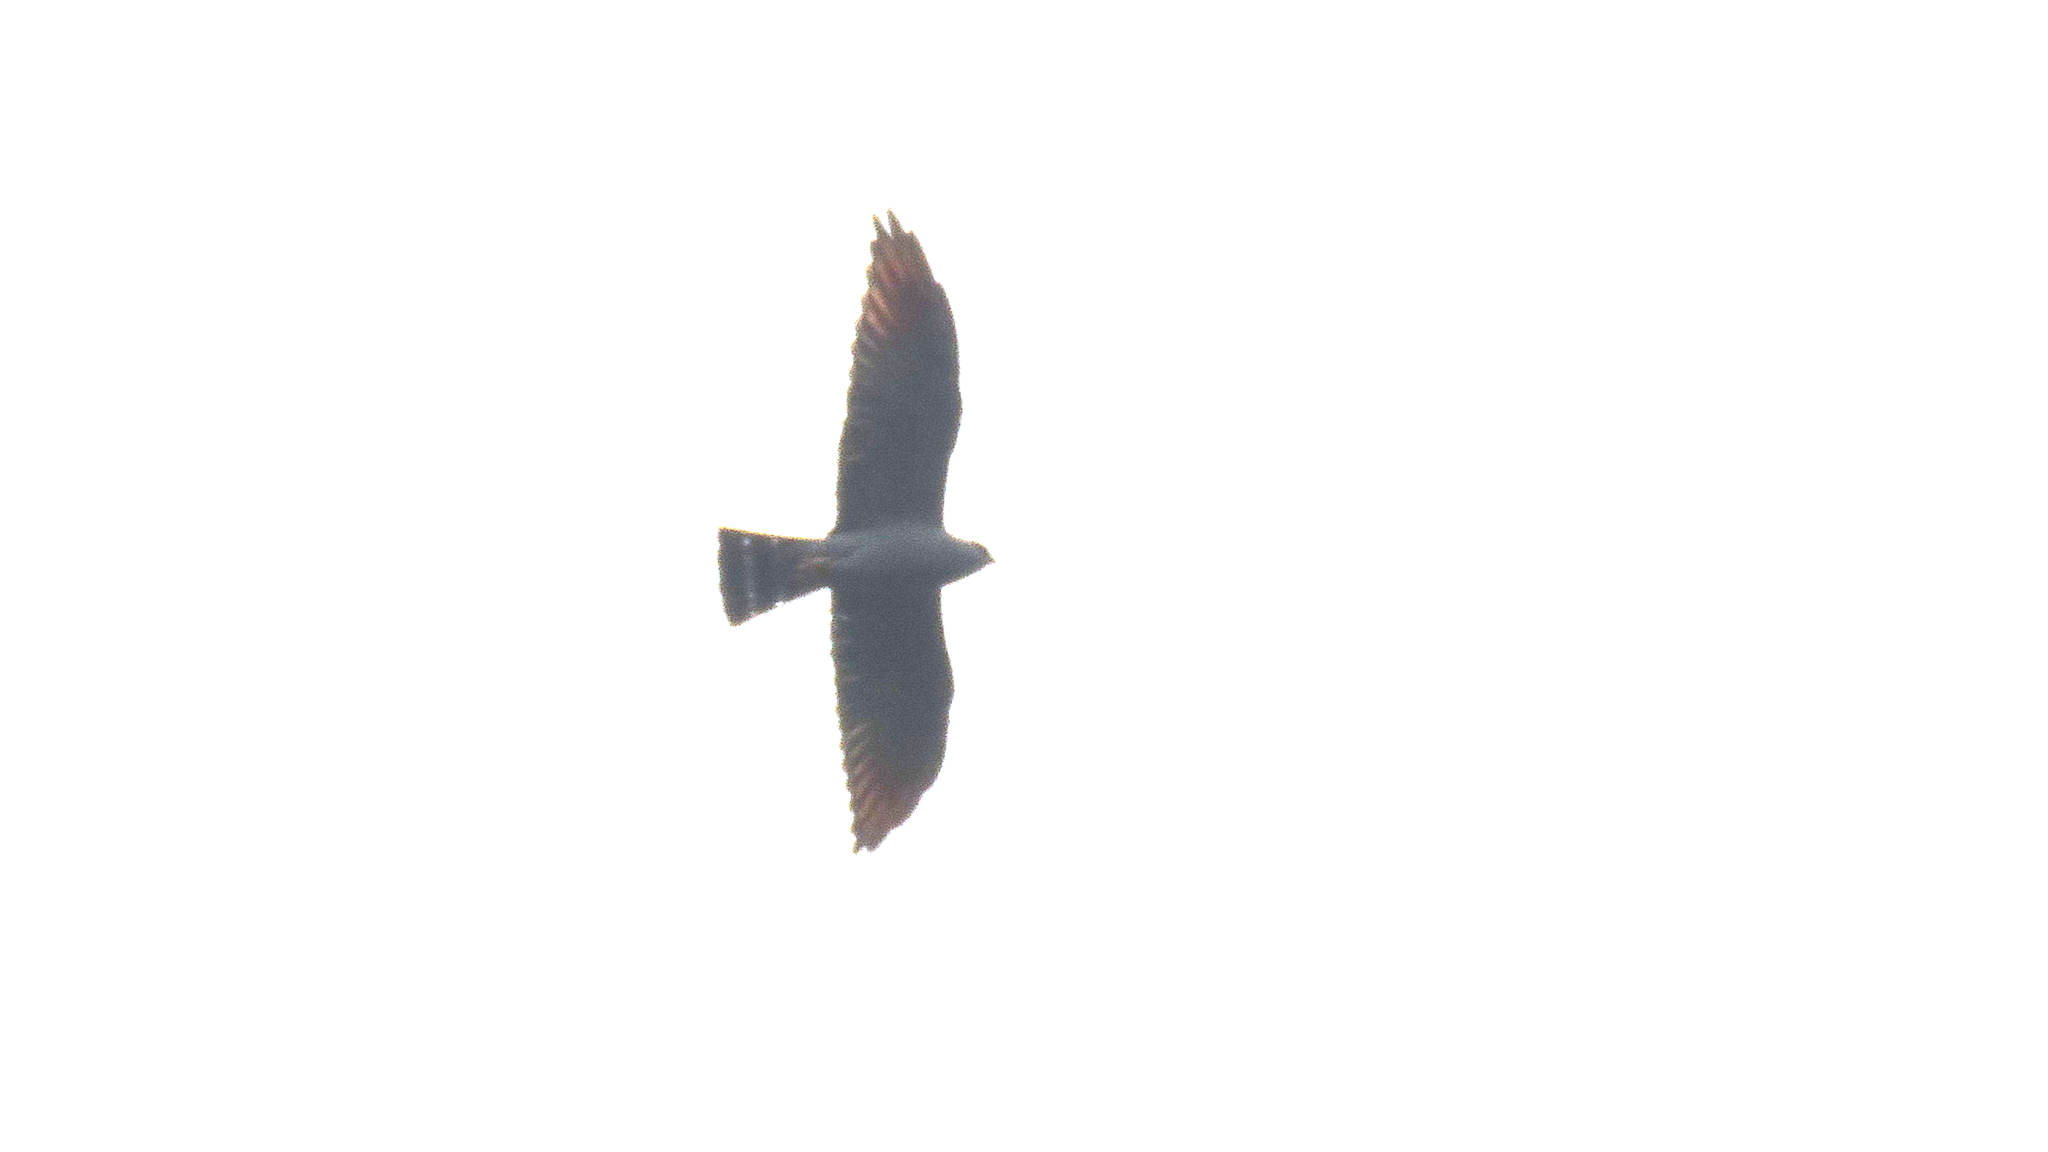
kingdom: Animalia
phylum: Chordata
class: Aves
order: Accipitriformes
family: Accipitridae
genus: Ictinia
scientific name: Ictinia plumbea
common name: Plumbeous kite
